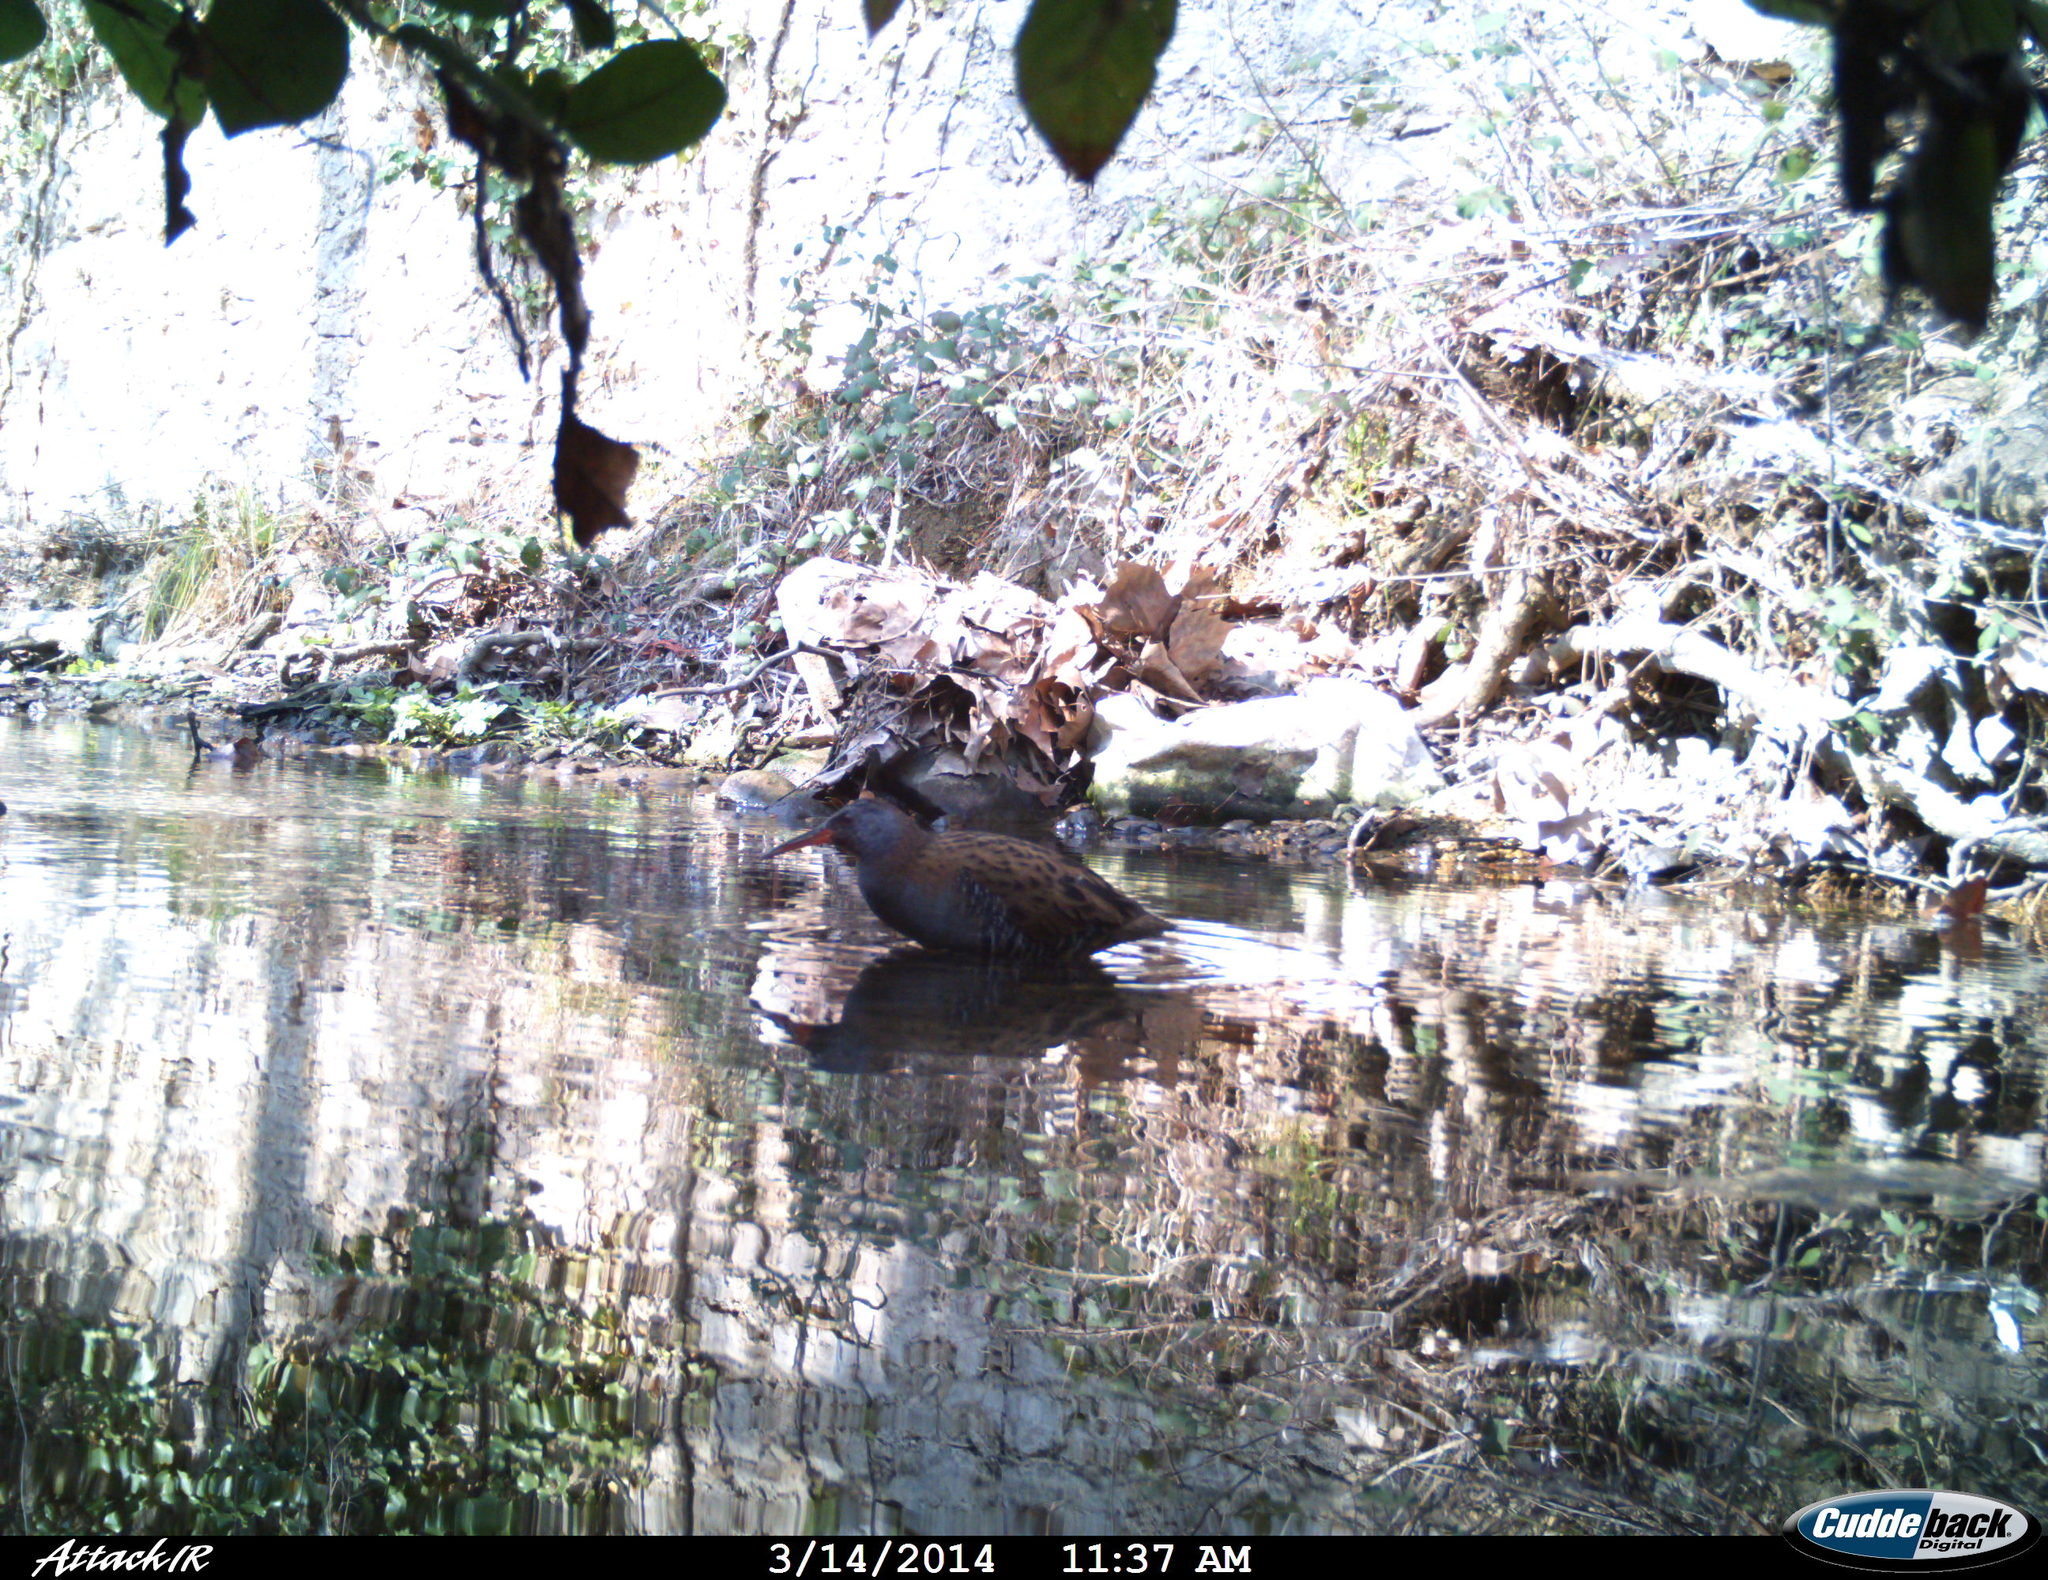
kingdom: Animalia
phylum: Chordata
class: Aves
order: Gruiformes
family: Rallidae
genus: Rallus
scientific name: Rallus aquaticus
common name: Water rail
